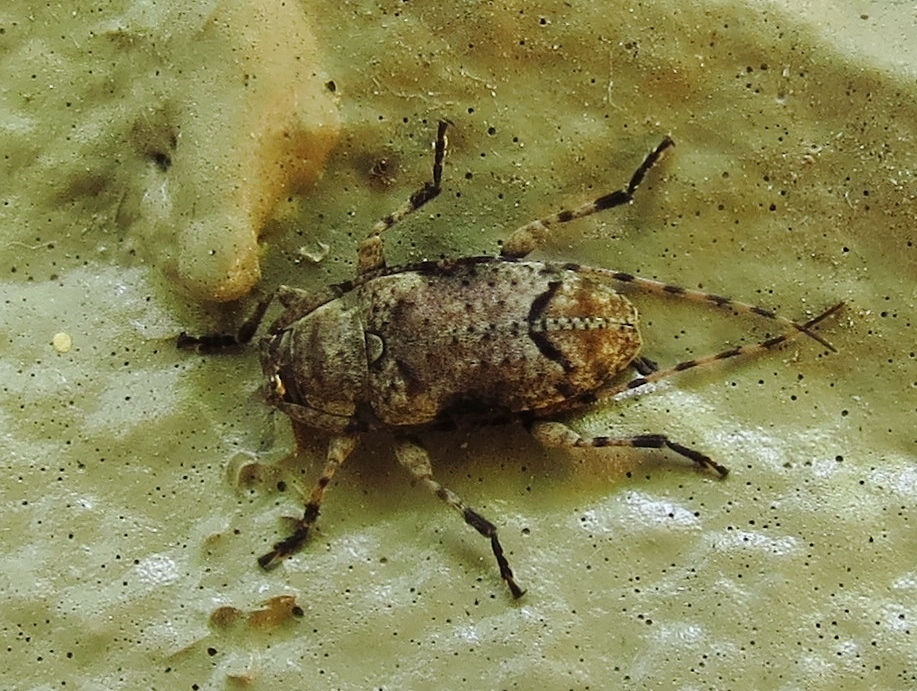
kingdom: Animalia
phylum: Arthropoda
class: Insecta
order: Coleoptera
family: Cerambycidae
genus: Sternidius
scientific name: Sternidius mimeticus
